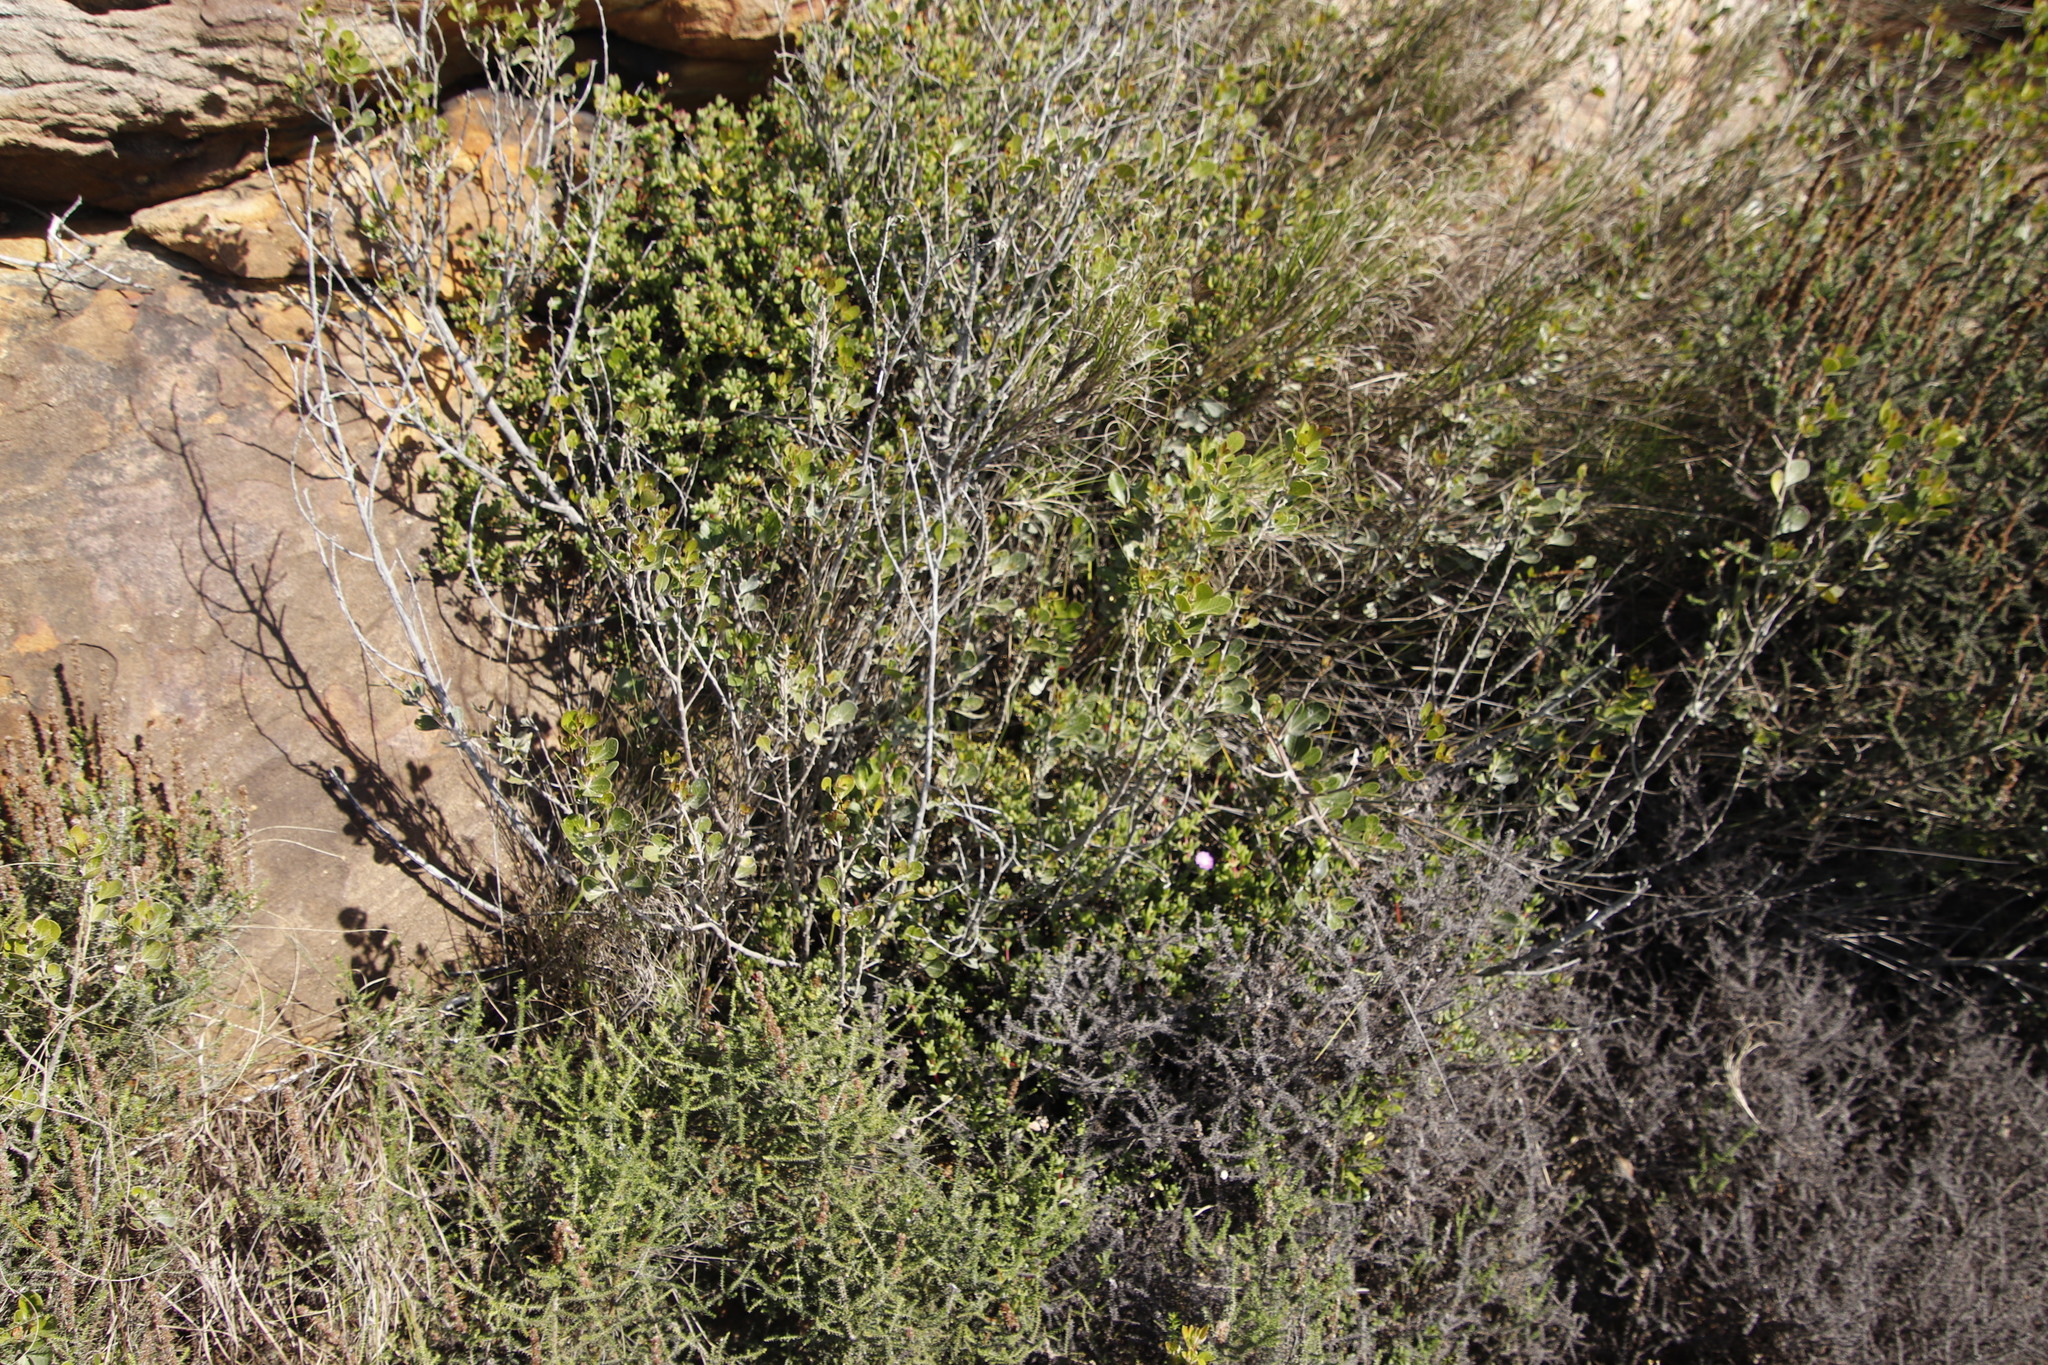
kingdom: Plantae
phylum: Tracheophyta
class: Magnoliopsida
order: Sapindales
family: Anacardiaceae
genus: Searsia
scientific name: Searsia lucida
